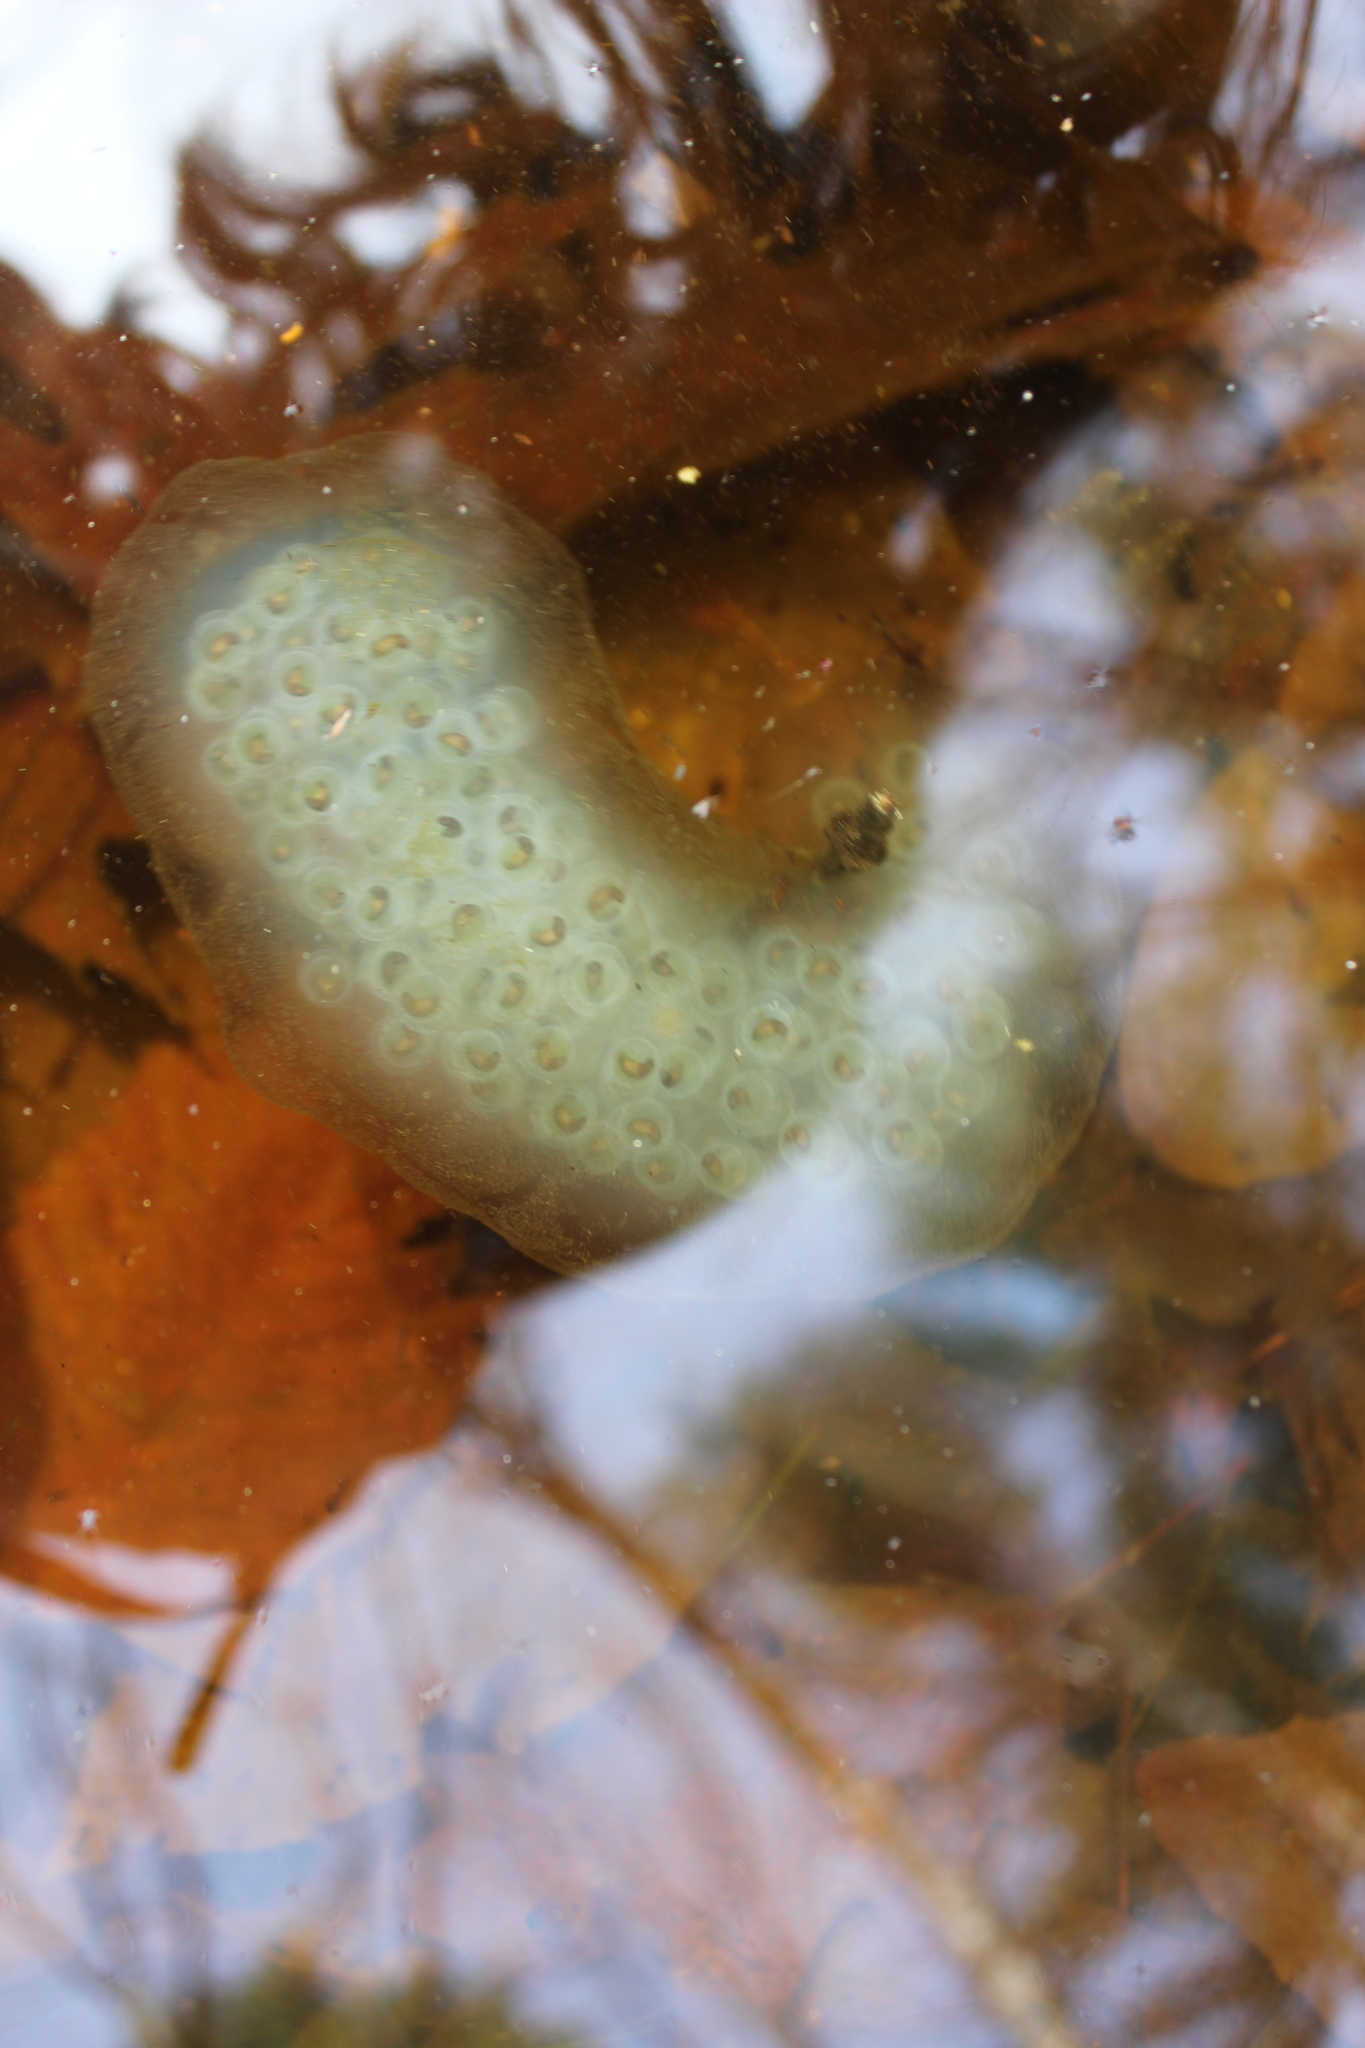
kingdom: Animalia
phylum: Chordata
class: Amphibia
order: Caudata
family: Ambystomatidae
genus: Ambystoma
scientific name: Ambystoma maculatum
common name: Spotted salamander
